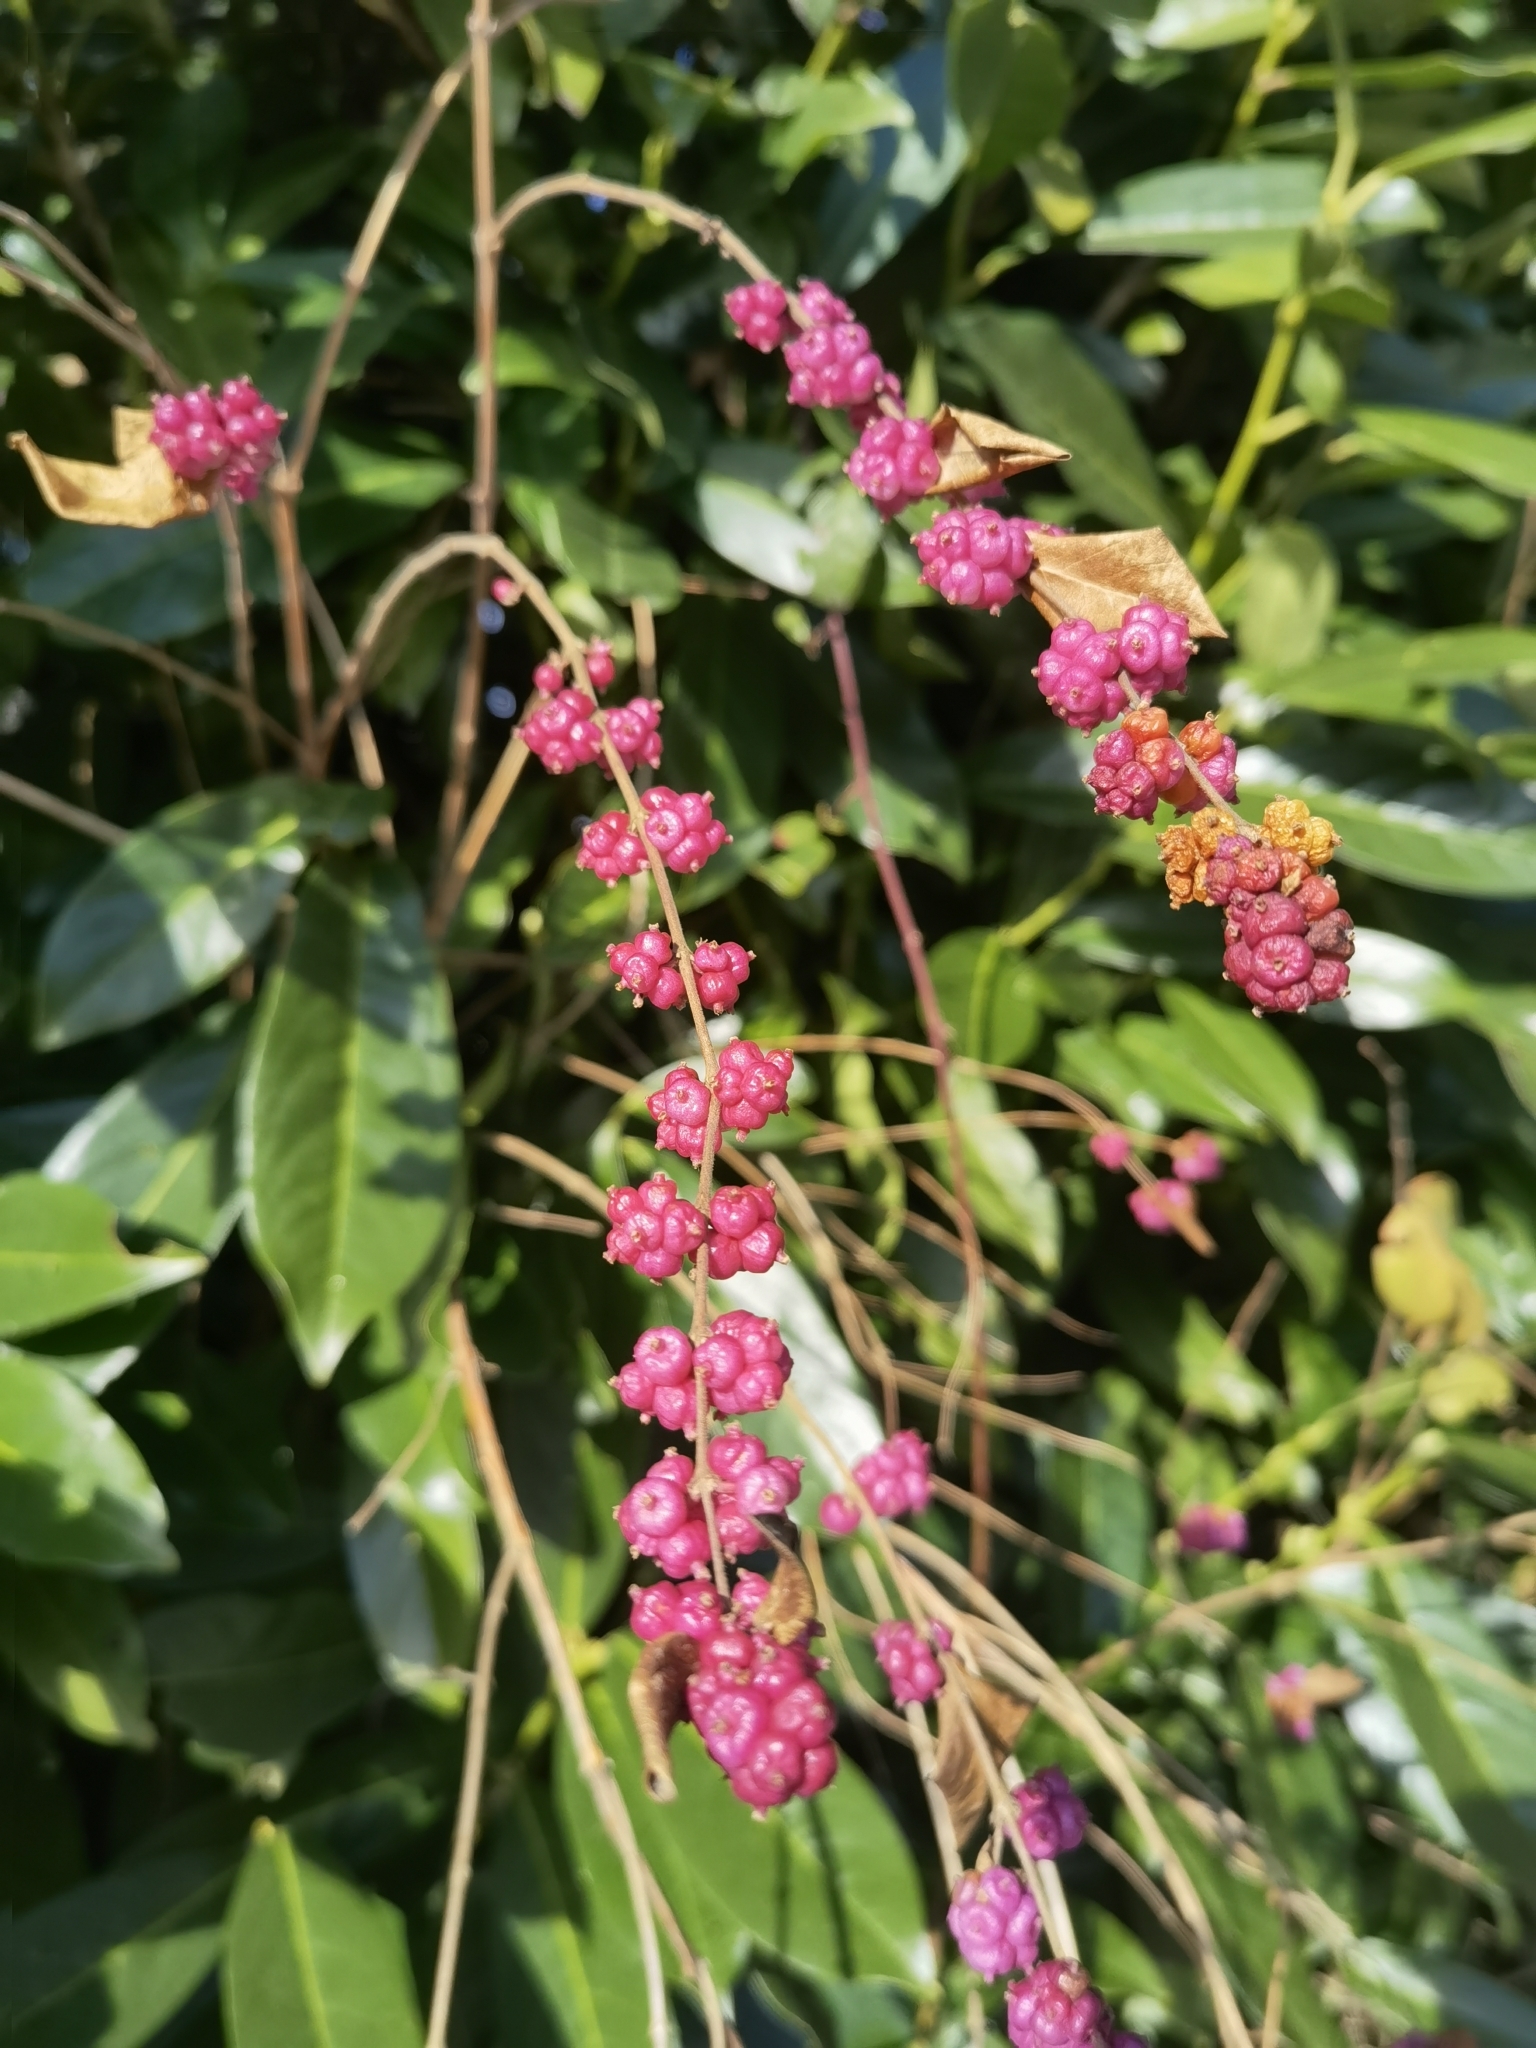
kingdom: Plantae
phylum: Tracheophyta
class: Magnoliopsida
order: Dipsacales
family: Caprifoliaceae
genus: Symphoricarpos
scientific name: Symphoricarpos orbiculatus
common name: Coralberry
